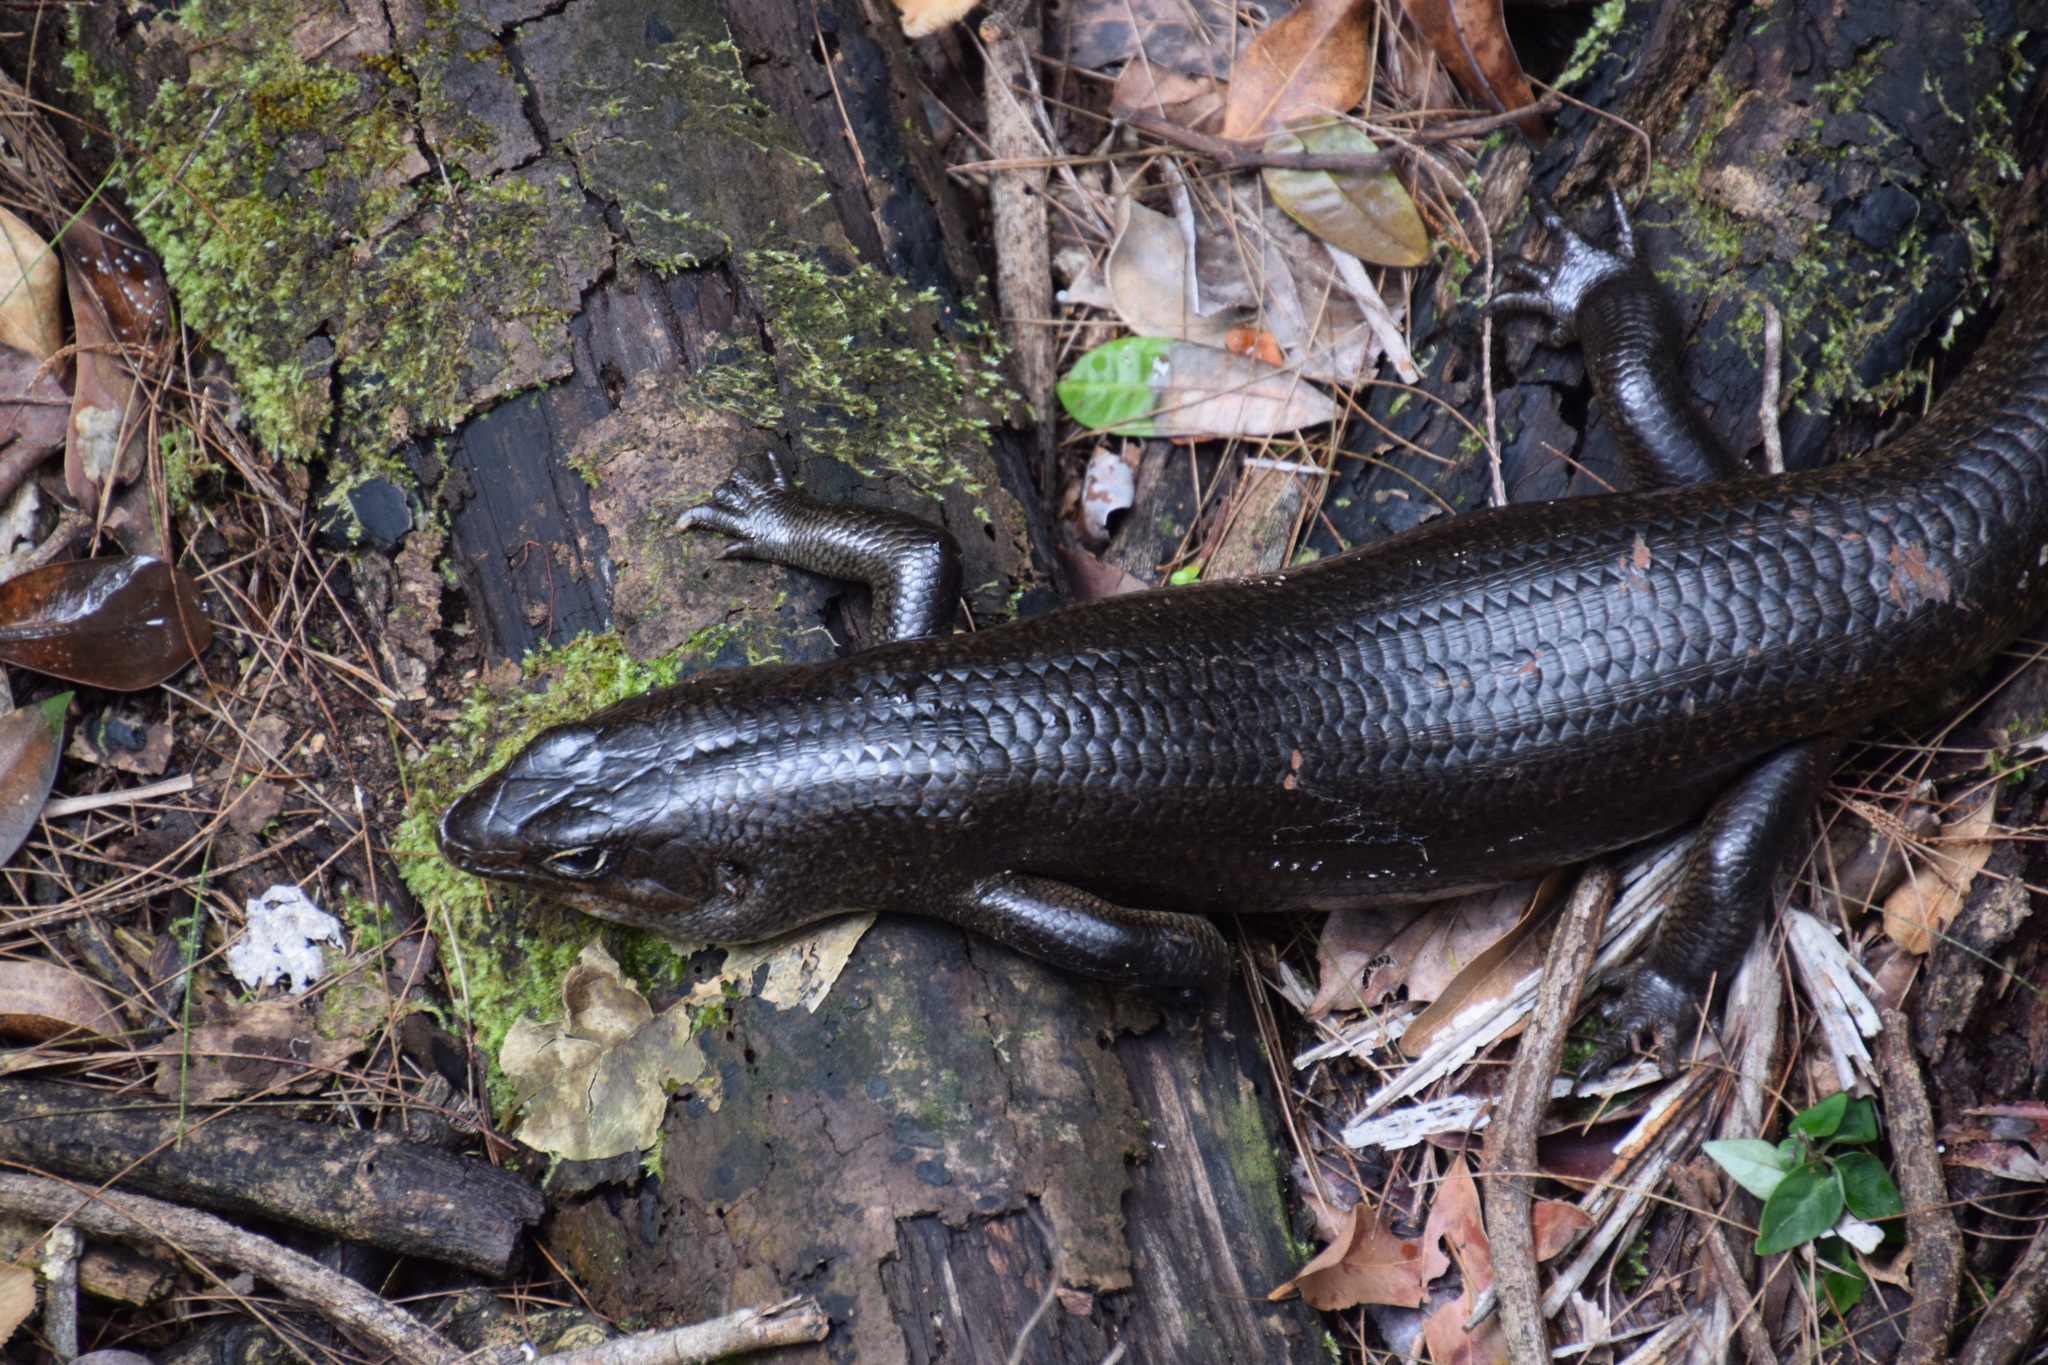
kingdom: Animalia
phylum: Chordata
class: Squamata
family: Scincidae
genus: Bellatorias
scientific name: Bellatorias major
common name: Land mullet
